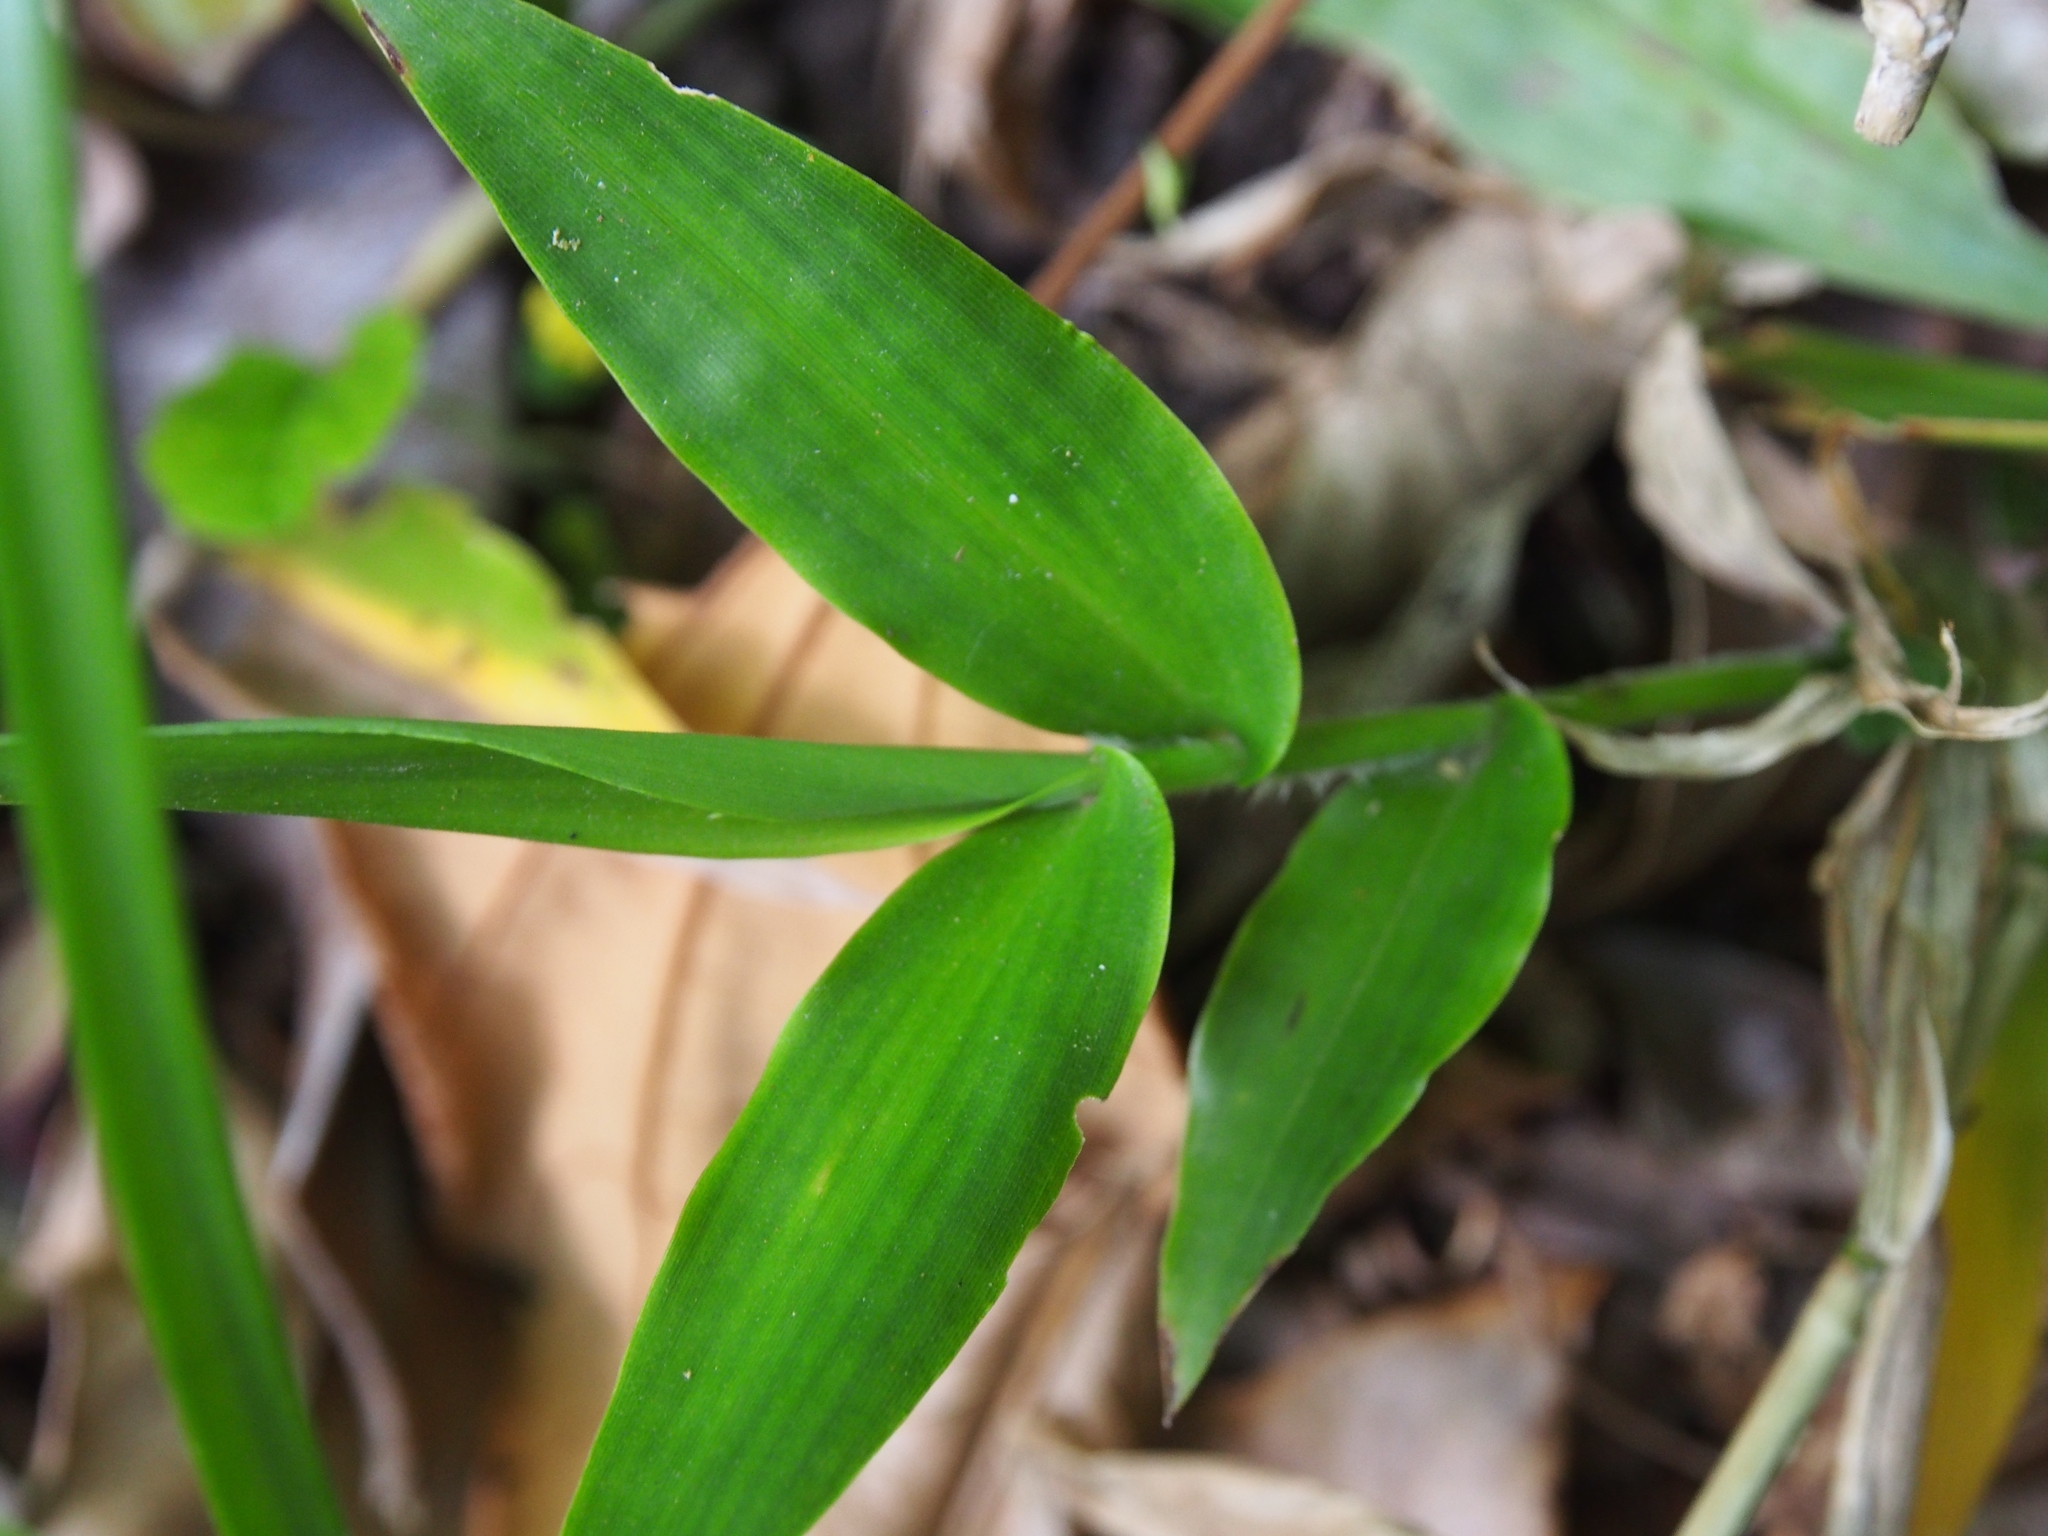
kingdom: Plantae
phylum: Tracheophyta
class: Liliopsida
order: Poales
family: Poaceae
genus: Lasiacis
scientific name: Lasiacis rhizophora
